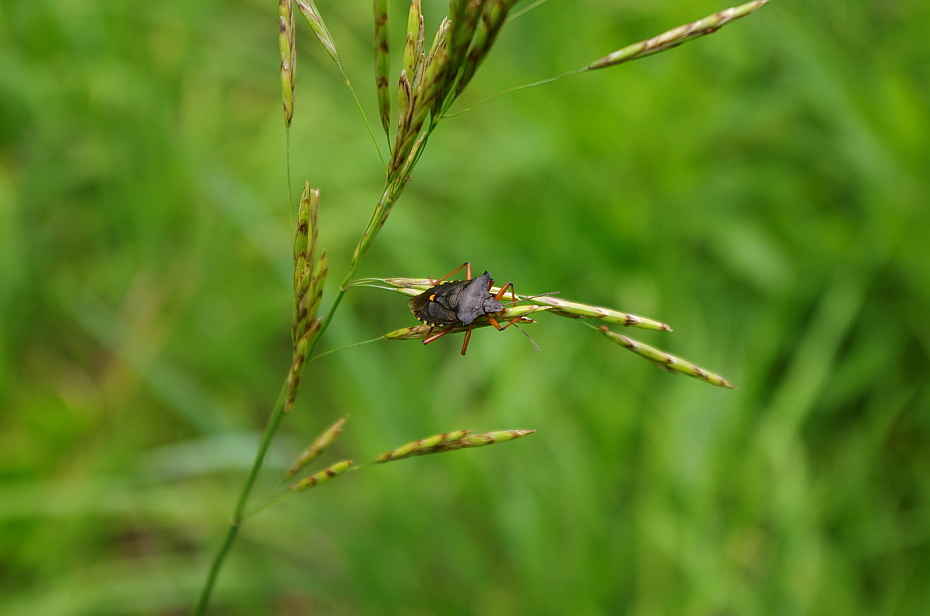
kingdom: Animalia
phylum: Arthropoda
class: Insecta
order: Hemiptera
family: Pentatomidae
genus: Pentatoma
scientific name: Pentatoma rufipes
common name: Forest bug
